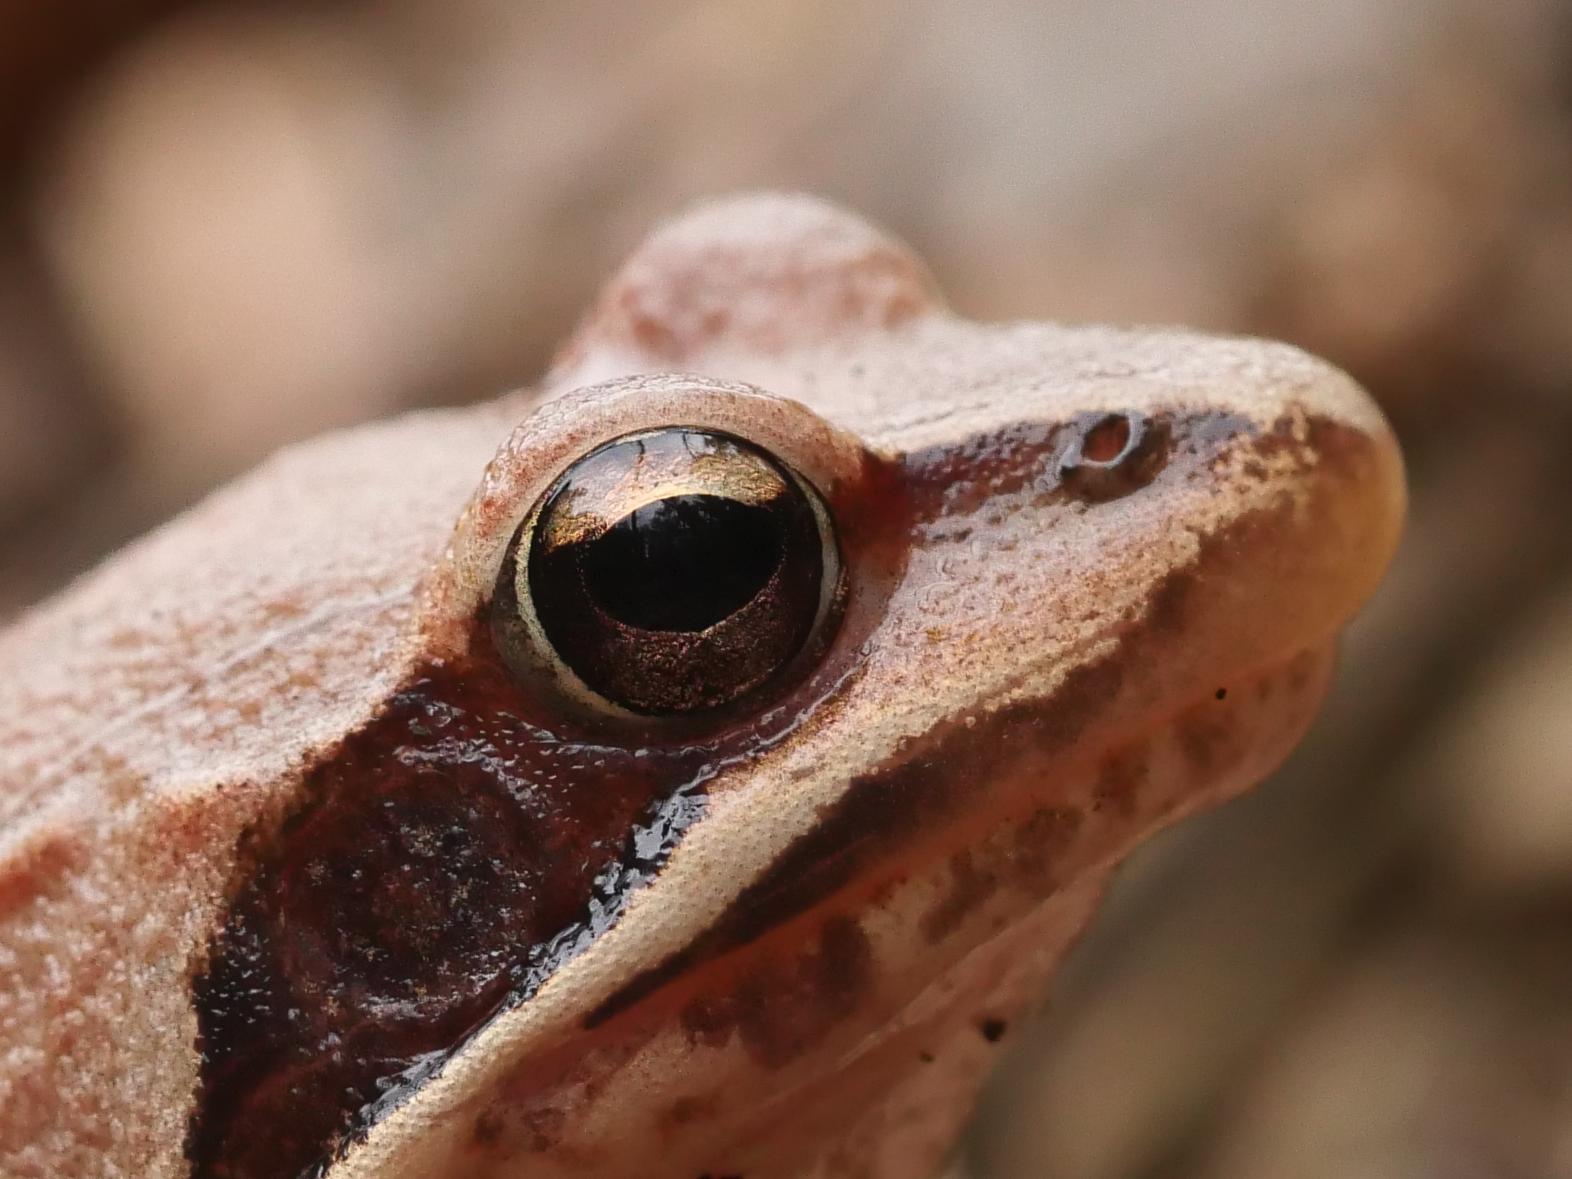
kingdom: Animalia
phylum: Chordata
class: Amphibia
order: Anura
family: Ranidae
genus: Rana
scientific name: Rana dalmatina
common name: Agile frog
